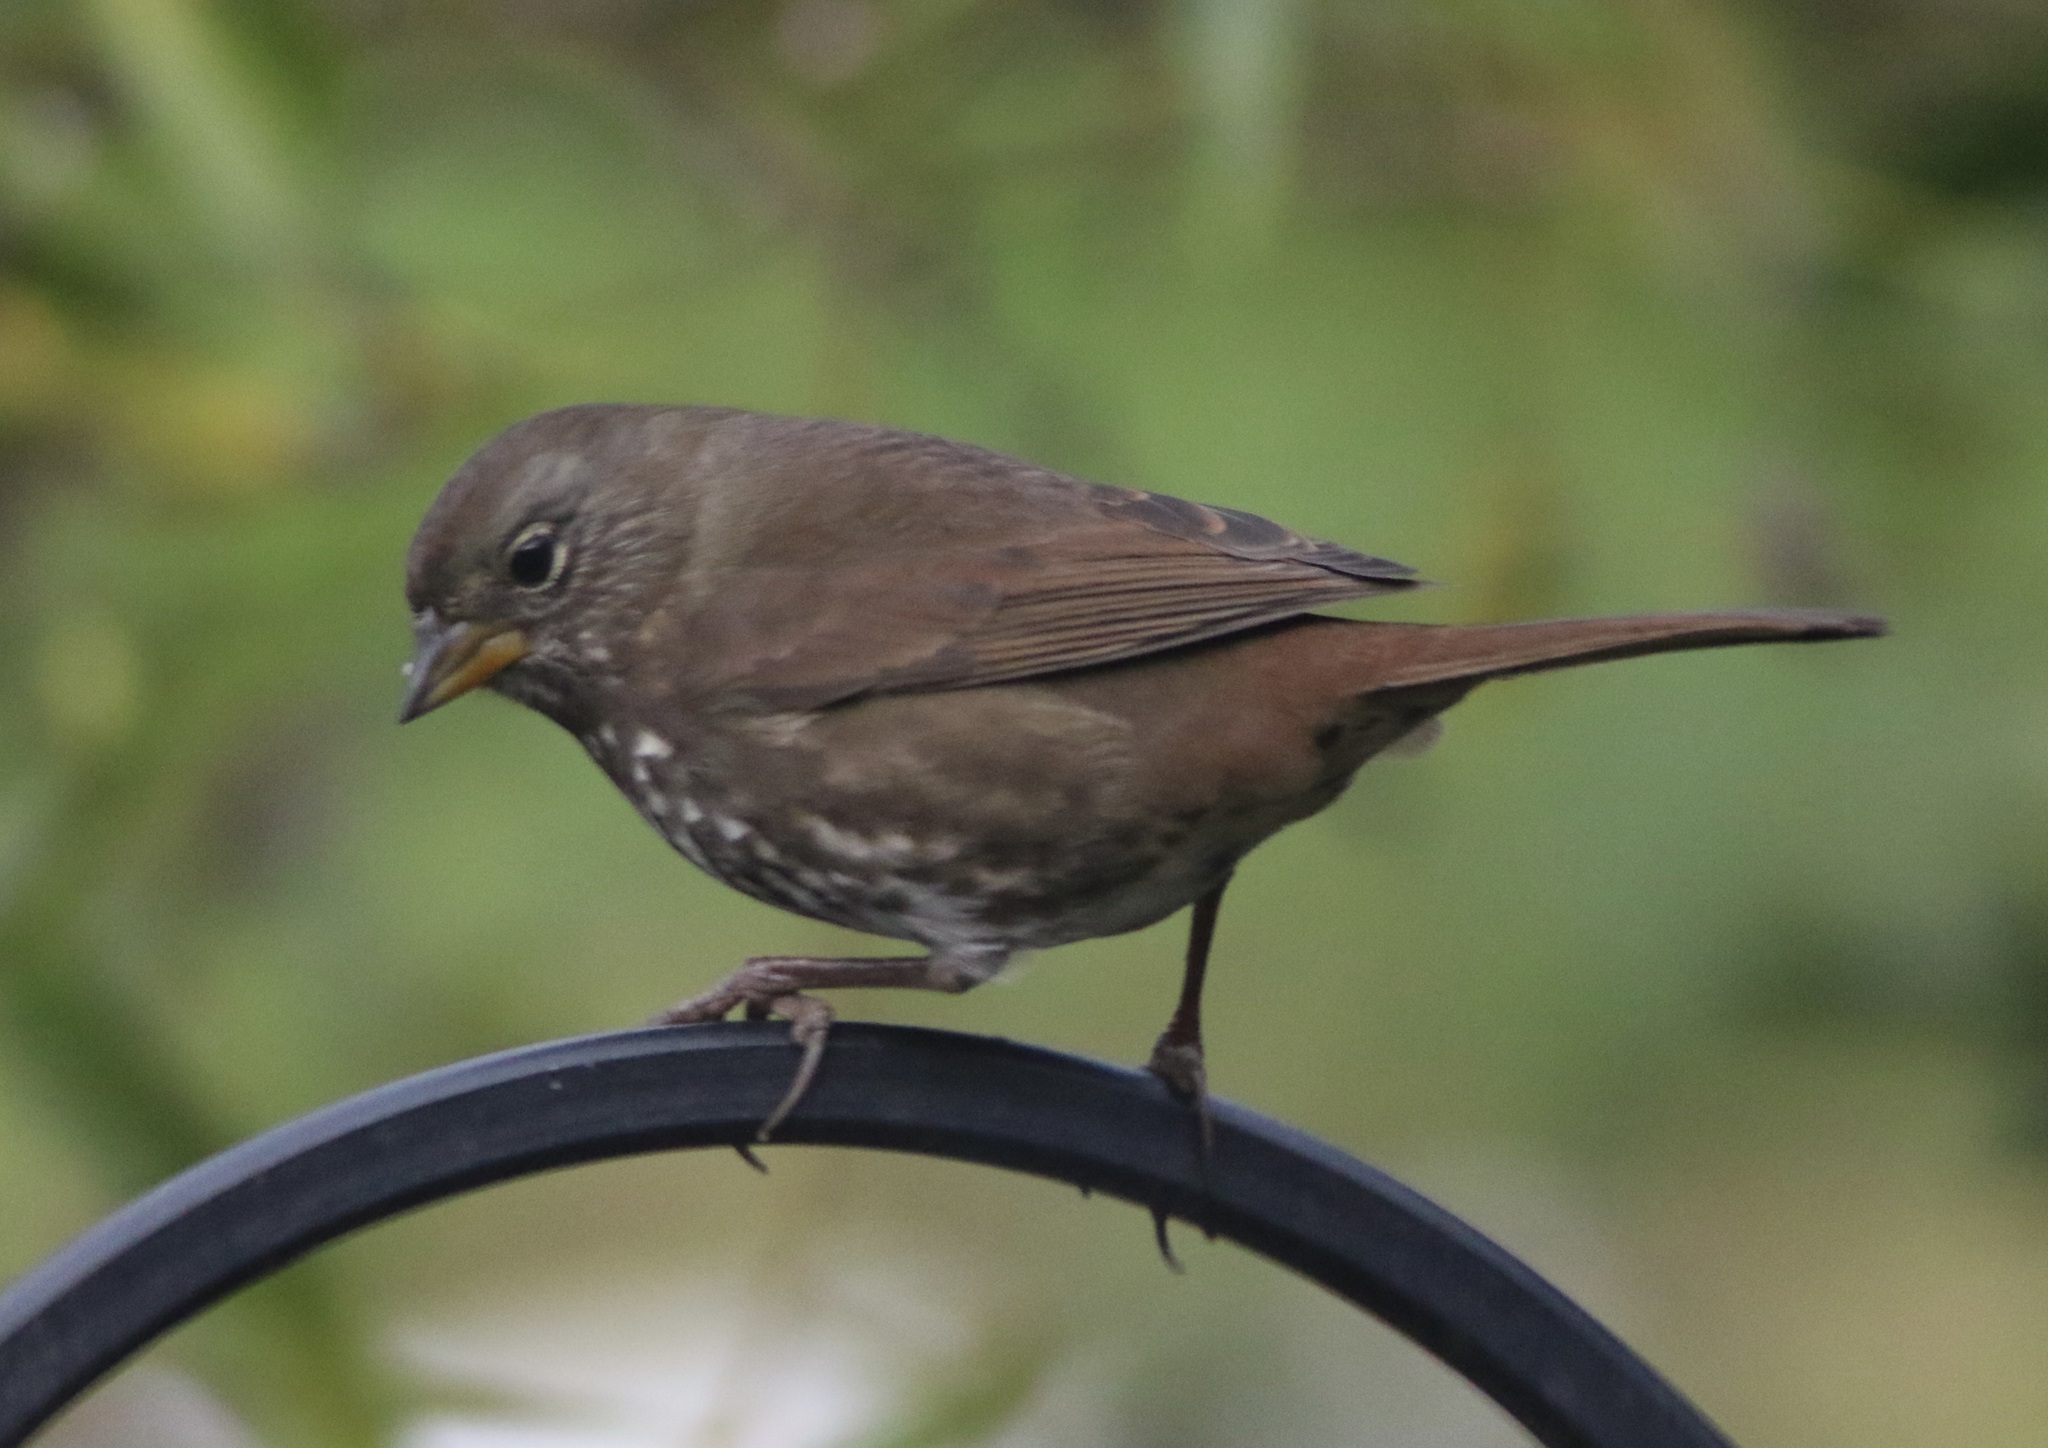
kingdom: Animalia
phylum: Chordata
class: Aves
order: Passeriformes
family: Passerellidae
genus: Passerella
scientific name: Passerella iliaca
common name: Fox sparrow
